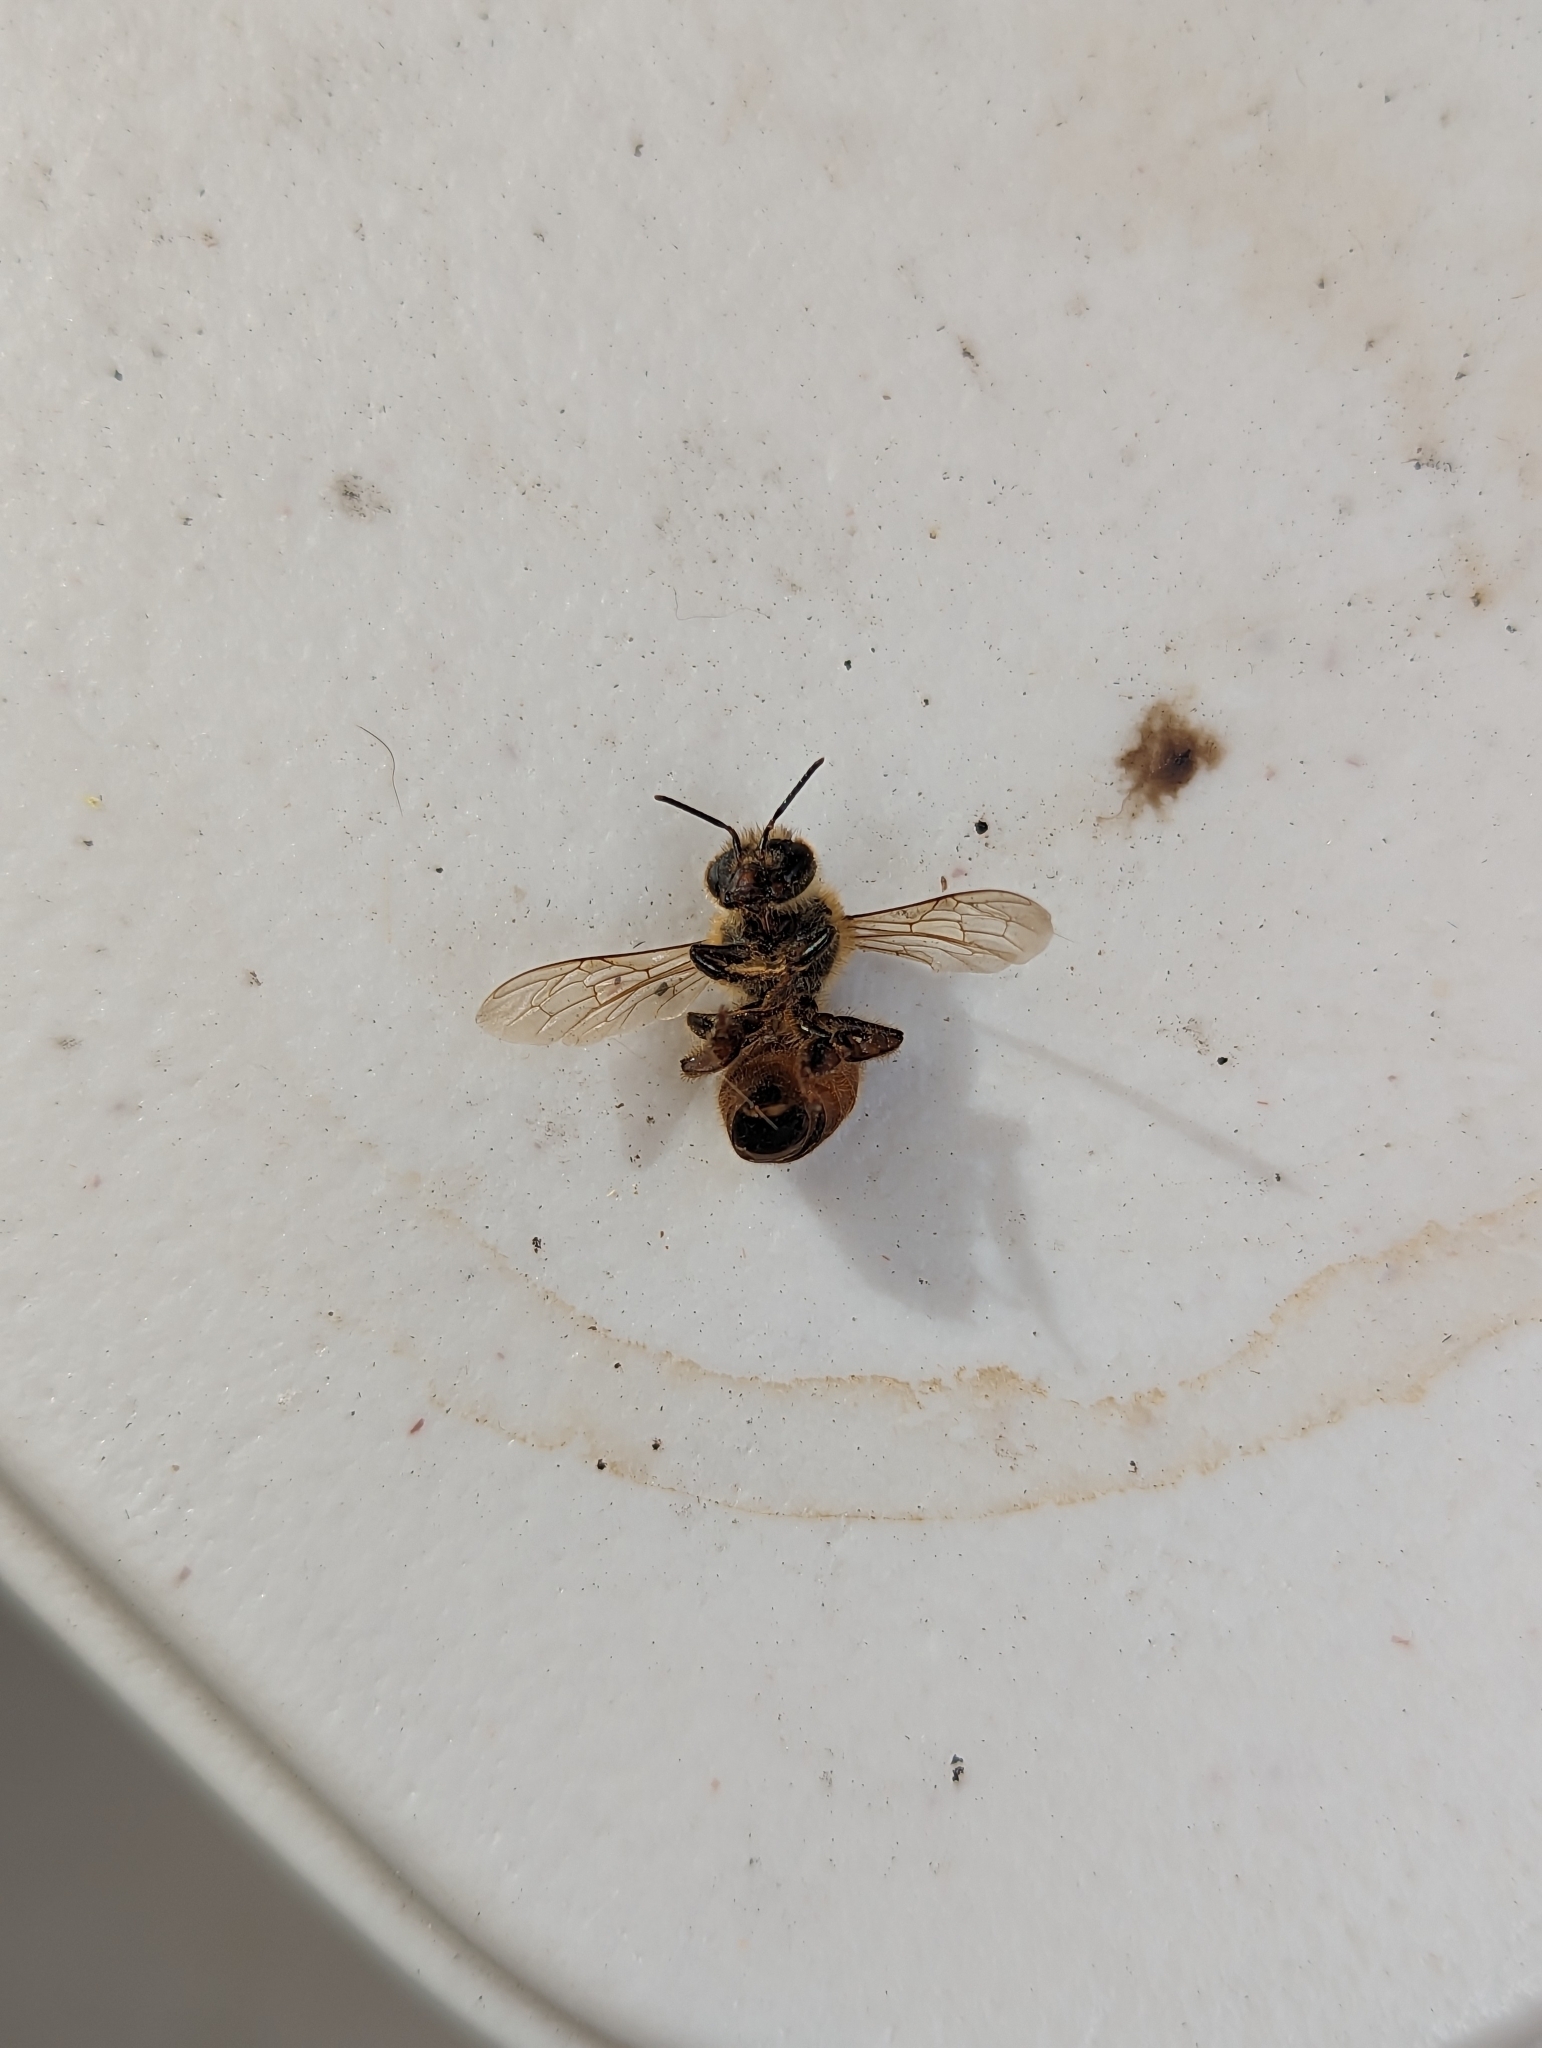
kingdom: Animalia
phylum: Arthropoda
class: Insecta
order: Hymenoptera
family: Apidae
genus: Apis
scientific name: Apis mellifera
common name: Honey bee
